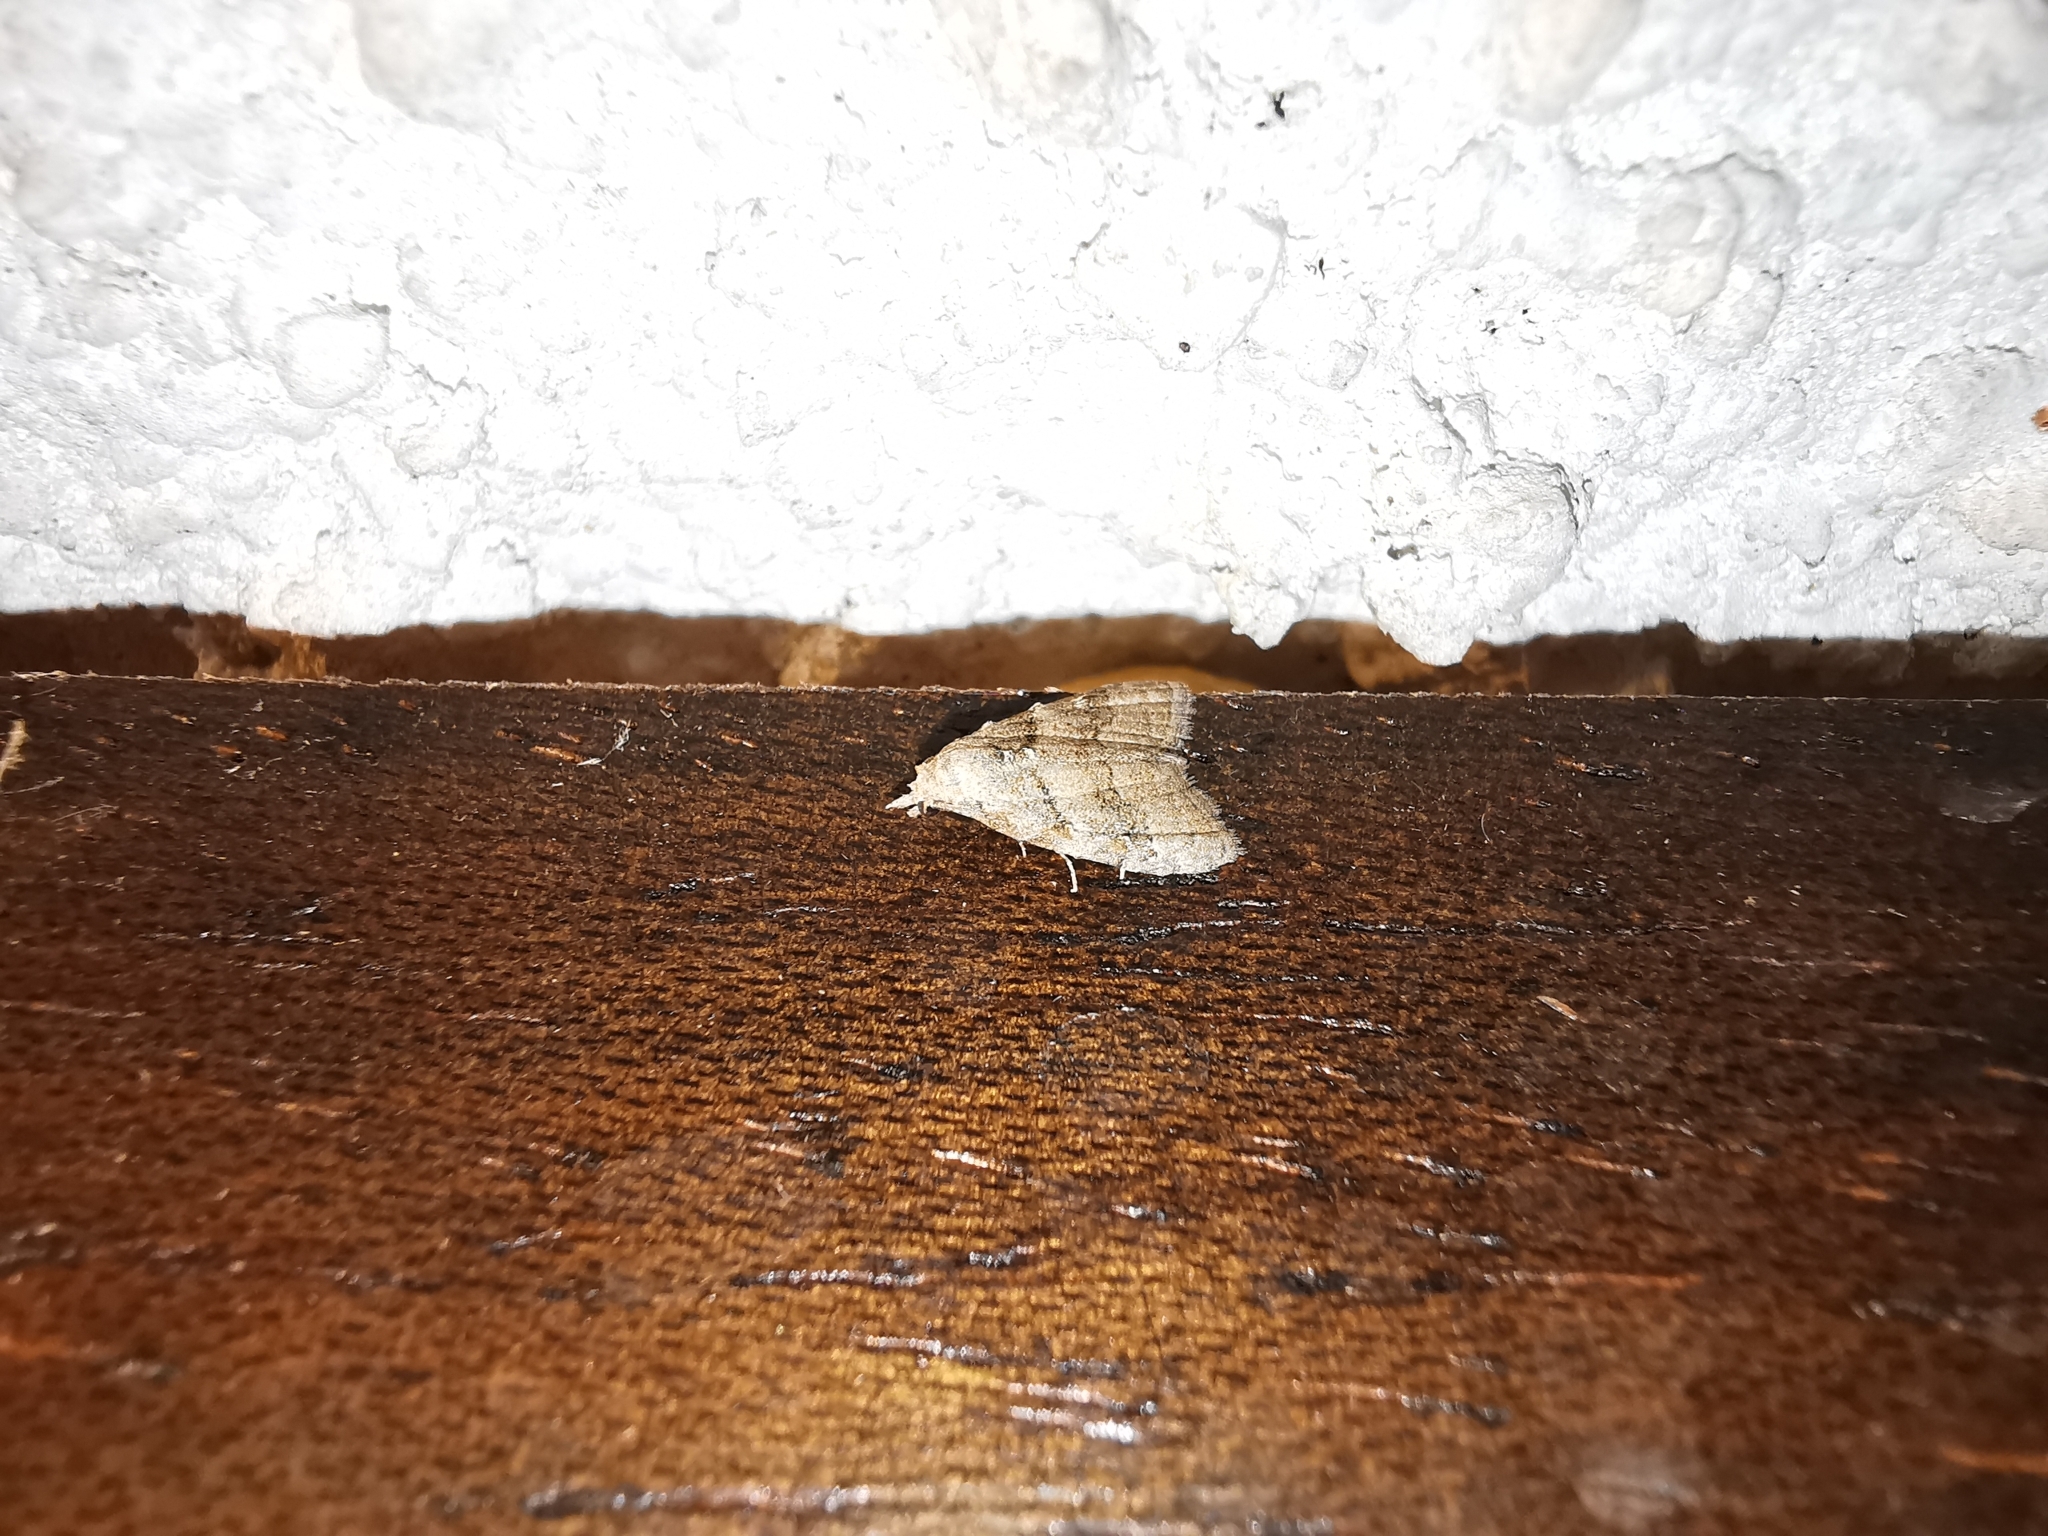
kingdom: Animalia
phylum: Arthropoda
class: Insecta
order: Lepidoptera
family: Nolidae
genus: Nola
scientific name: Nola harouni
